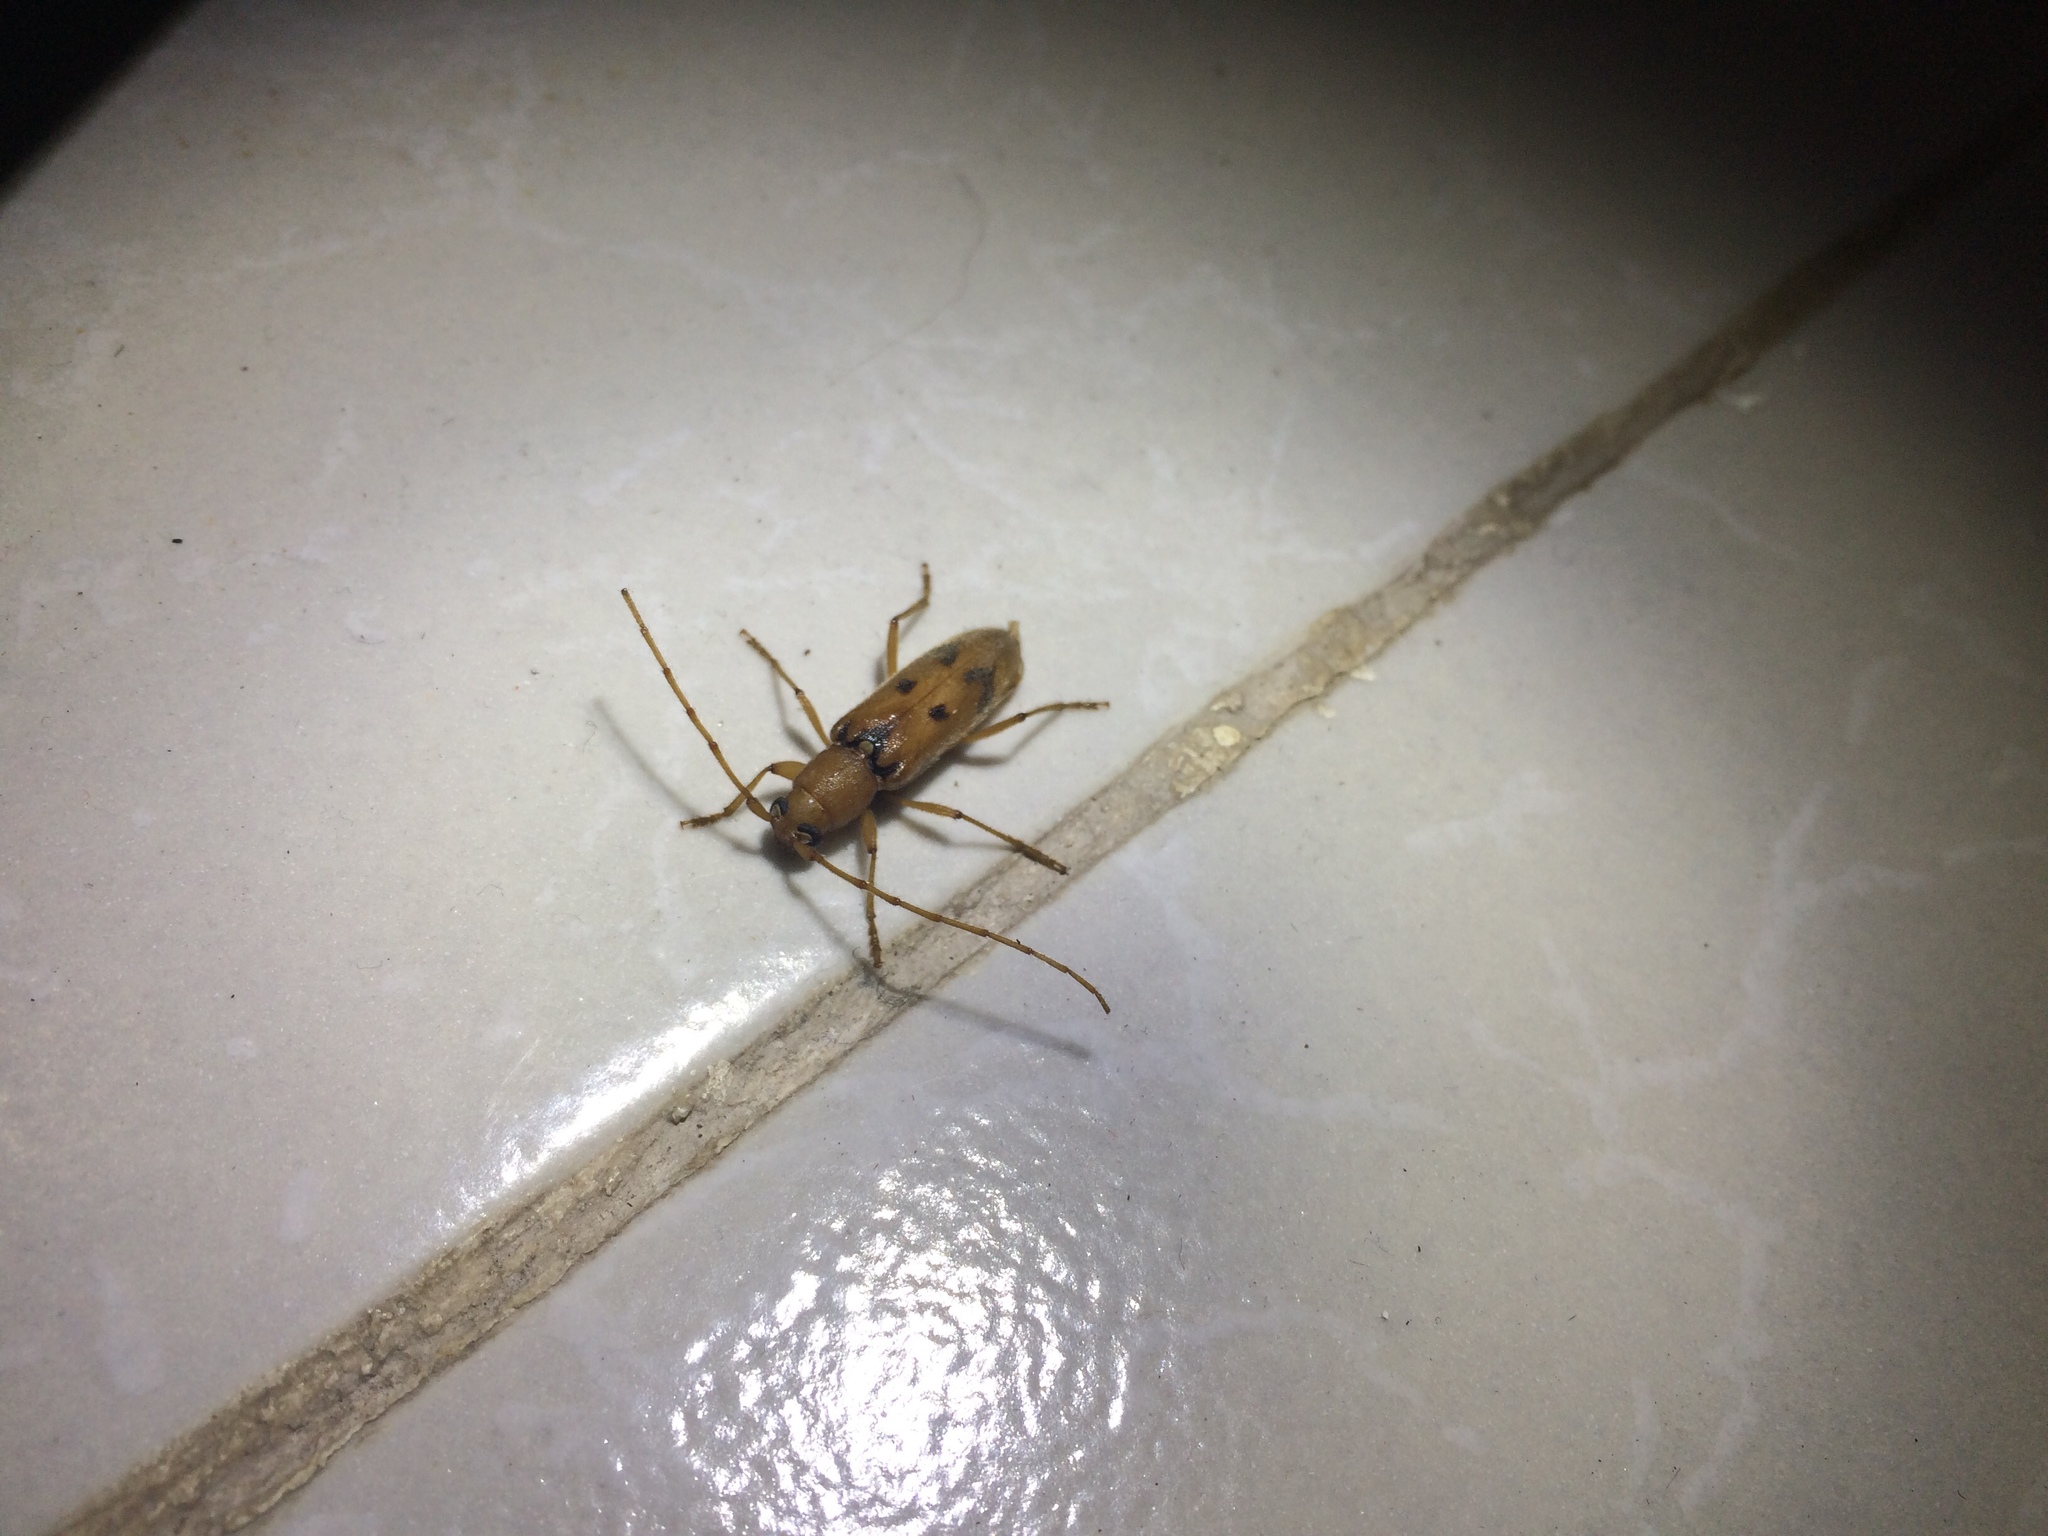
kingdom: Animalia
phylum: Arthropoda
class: Insecta
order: Coleoptera
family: Cerambycidae
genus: Achryson
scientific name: Achryson surinamum
